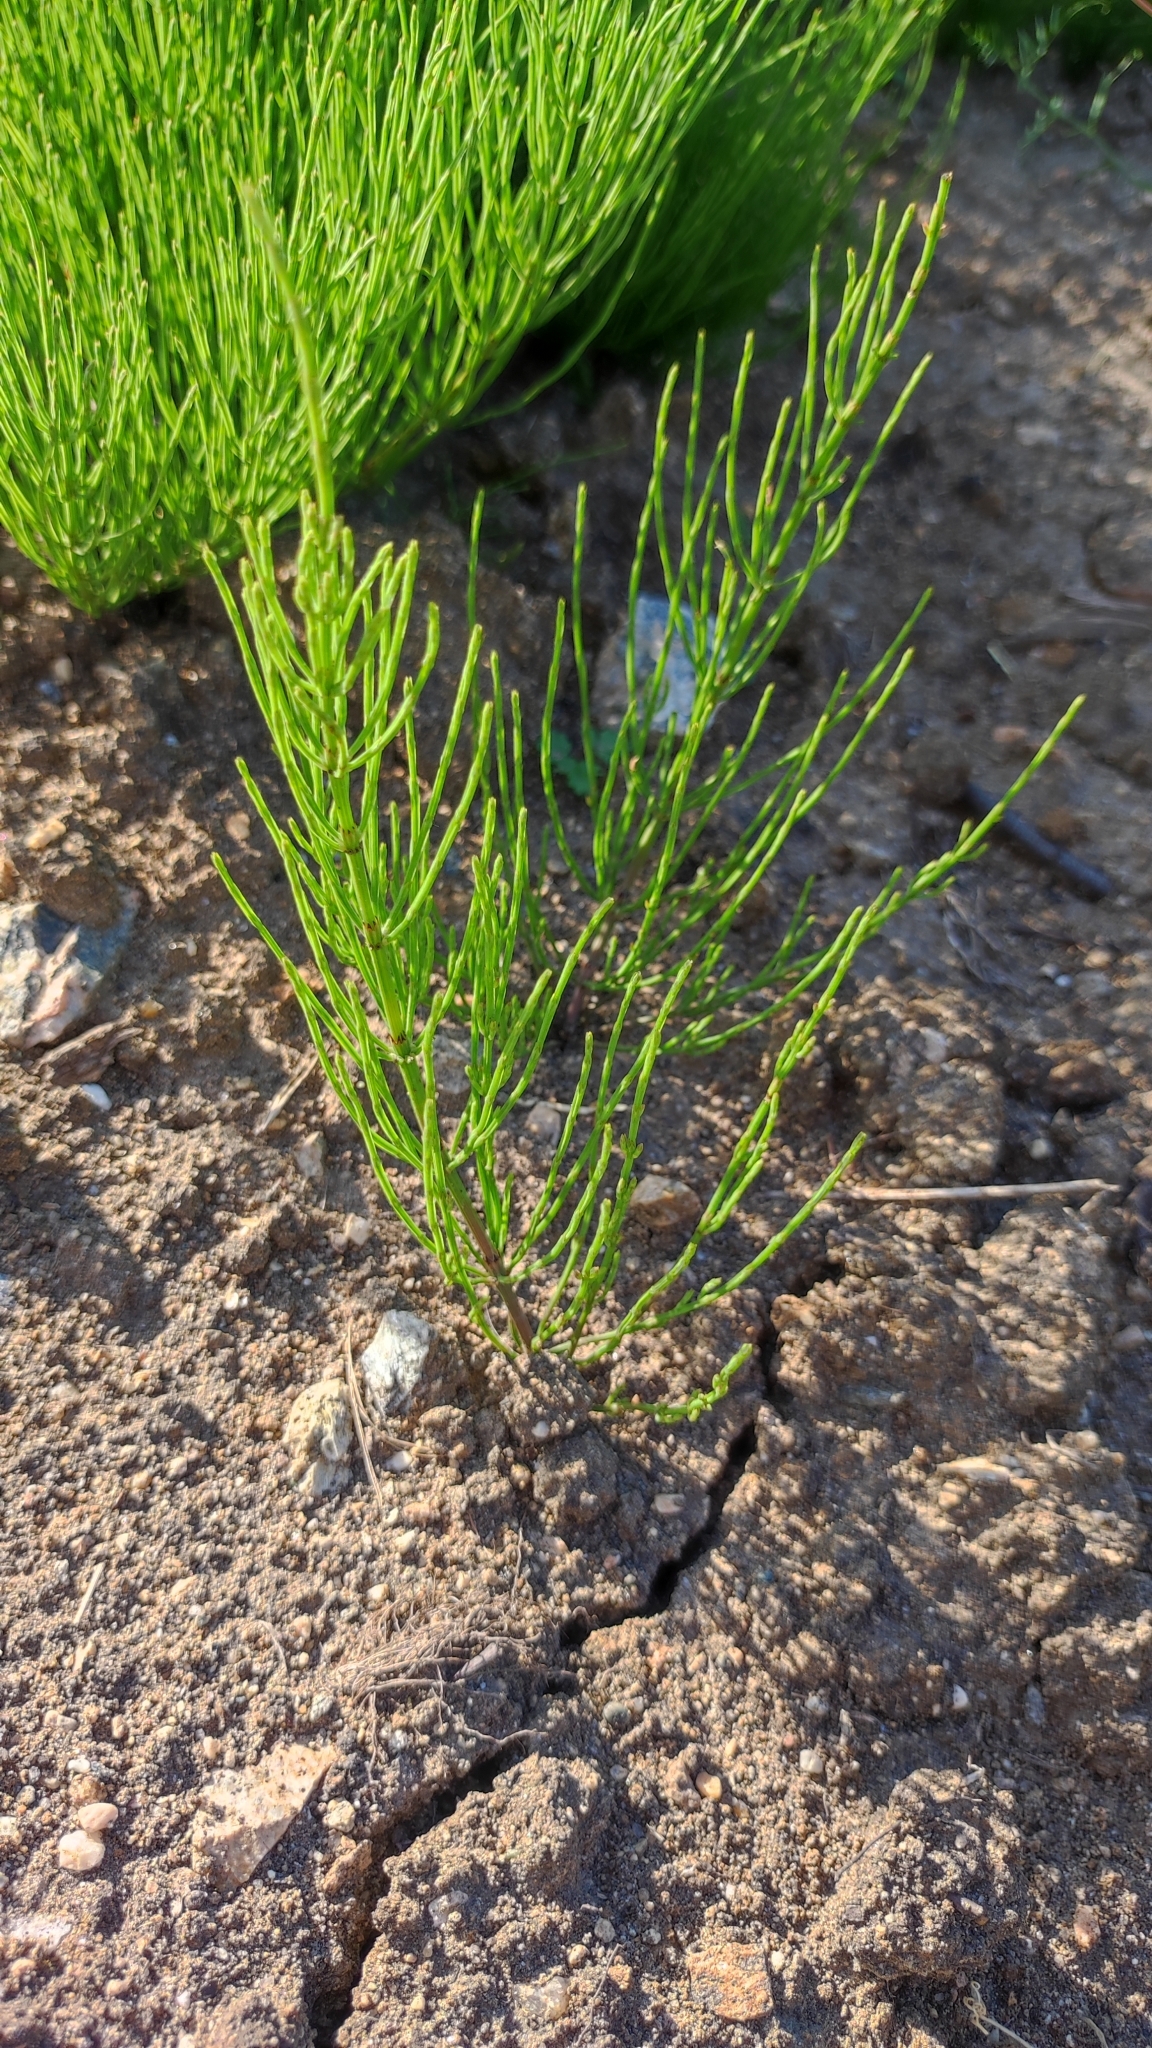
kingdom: Plantae
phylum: Tracheophyta
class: Polypodiopsida
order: Equisetales
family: Equisetaceae
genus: Equisetum
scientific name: Equisetum arvense
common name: Field horsetail
